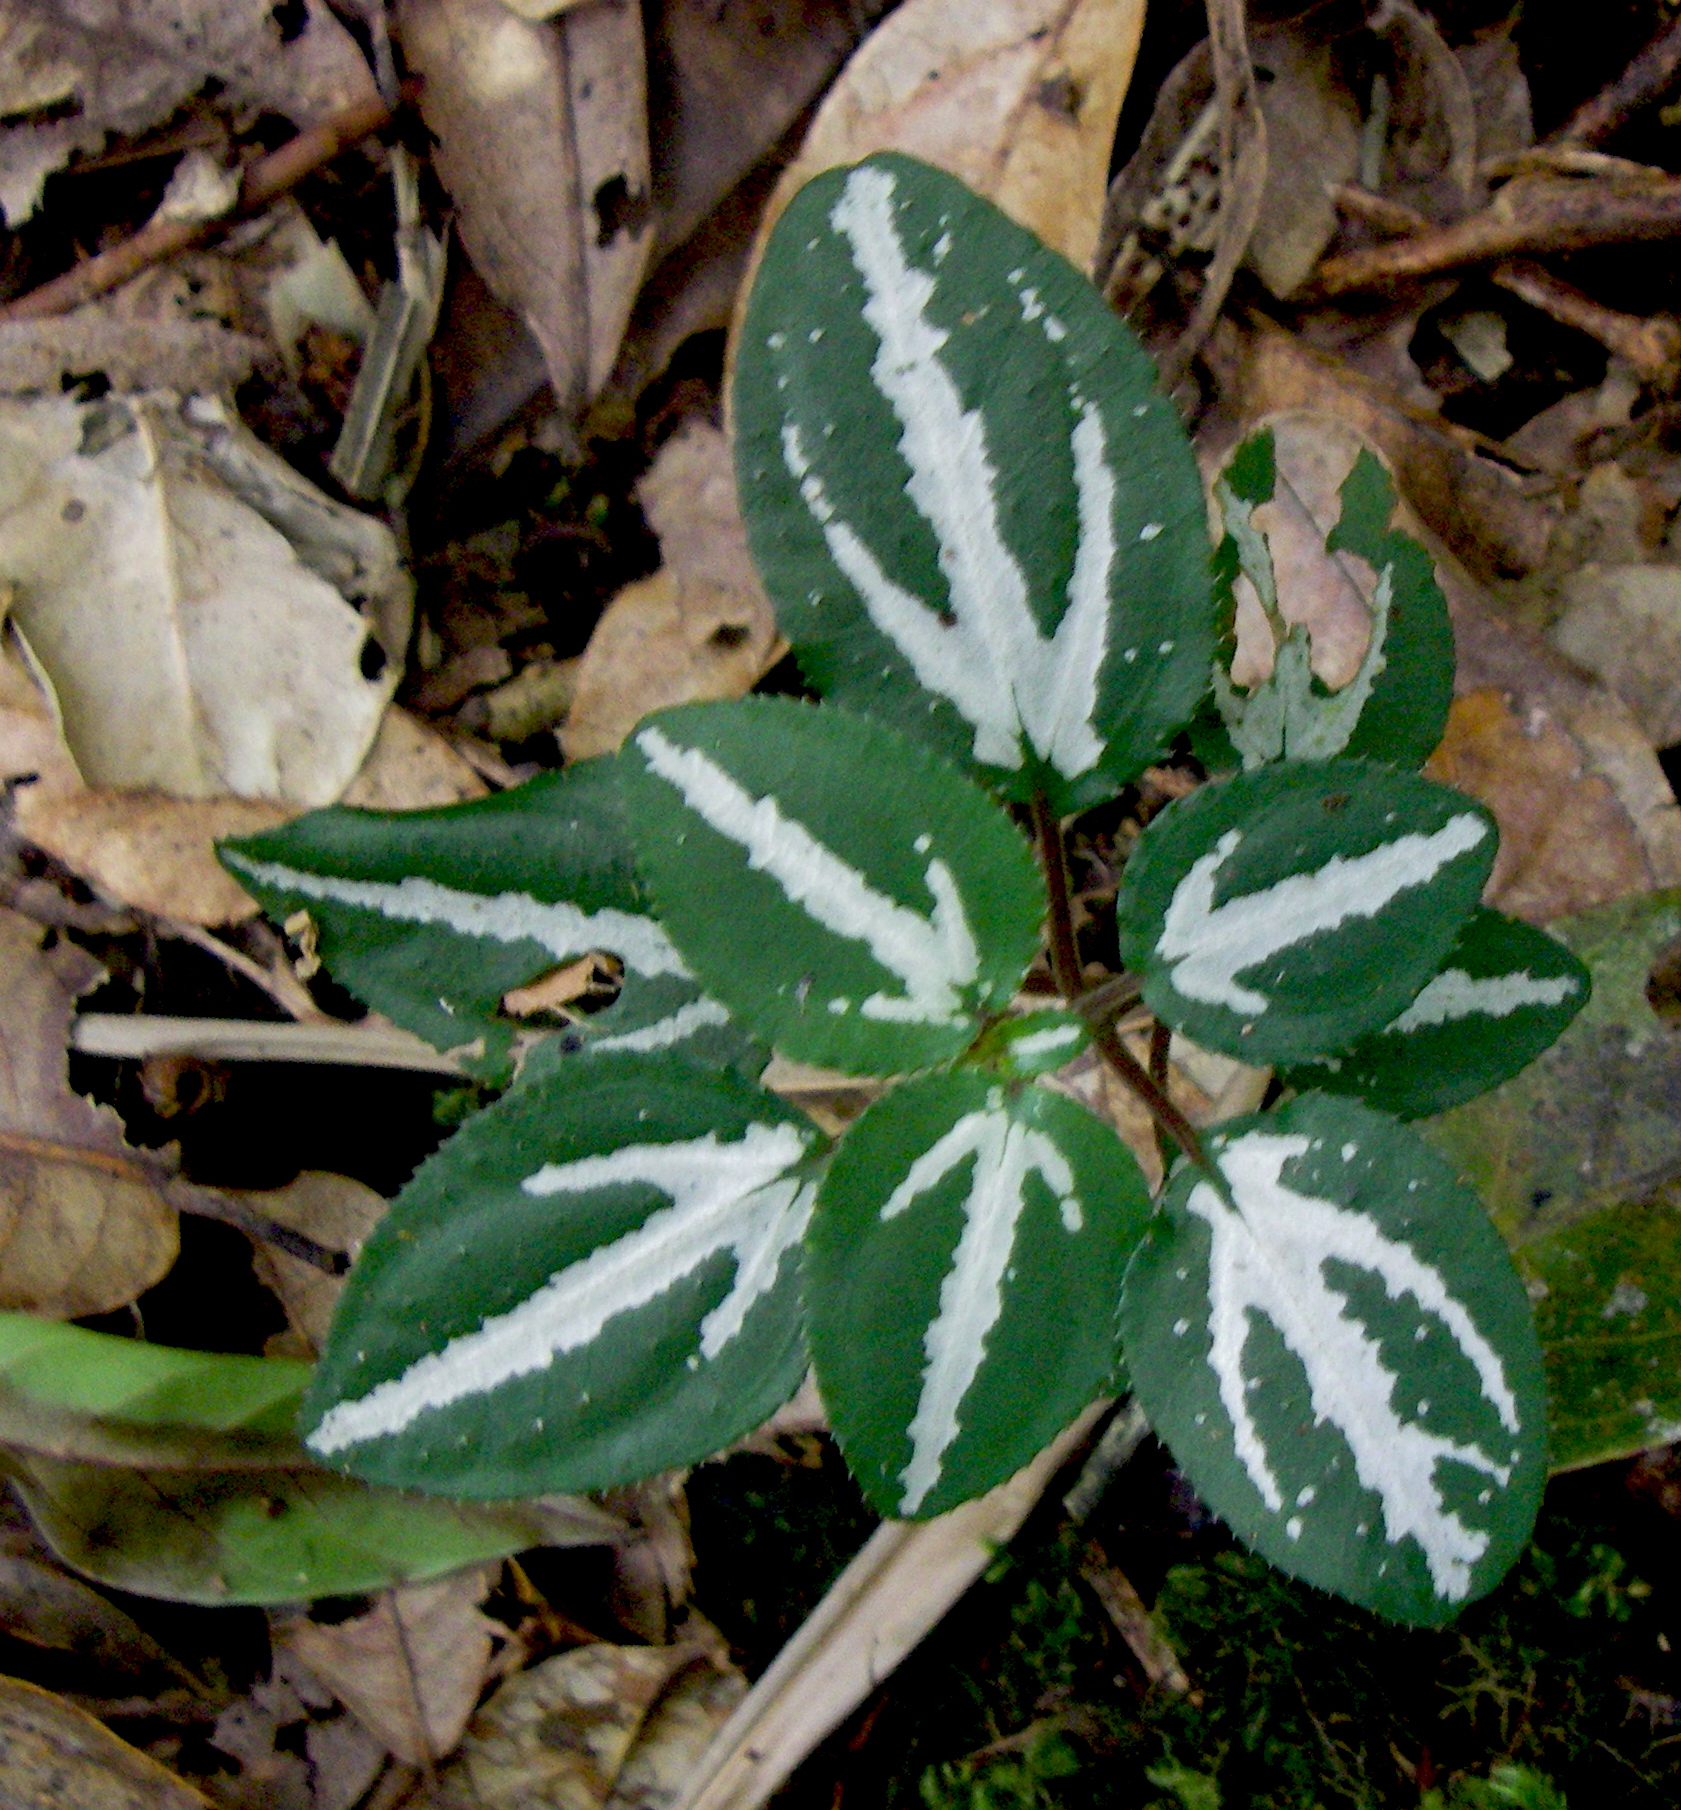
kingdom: Plantae
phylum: Tracheophyta
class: Magnoliopsida
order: Myrtales
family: Melastomataceae
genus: Sonerila
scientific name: Sonerila pulchella
